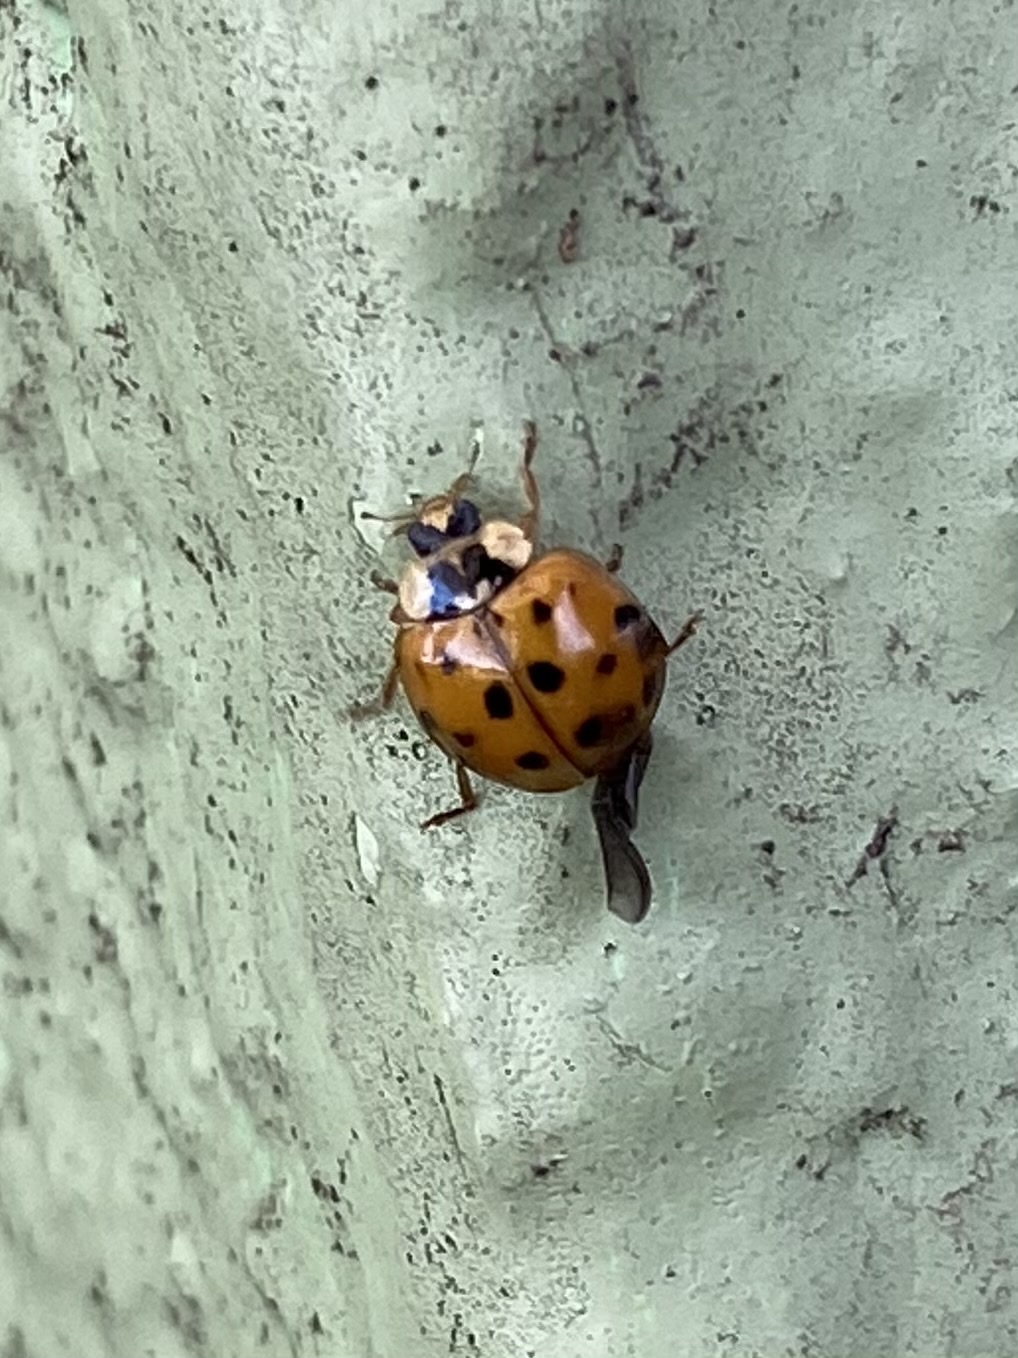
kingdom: Animalia
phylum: Arthropoda
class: Insecta
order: Coleoptera
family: Coccinellidae
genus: Harmonia
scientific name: Harmonia axyridis
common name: Harlequin ladybird
